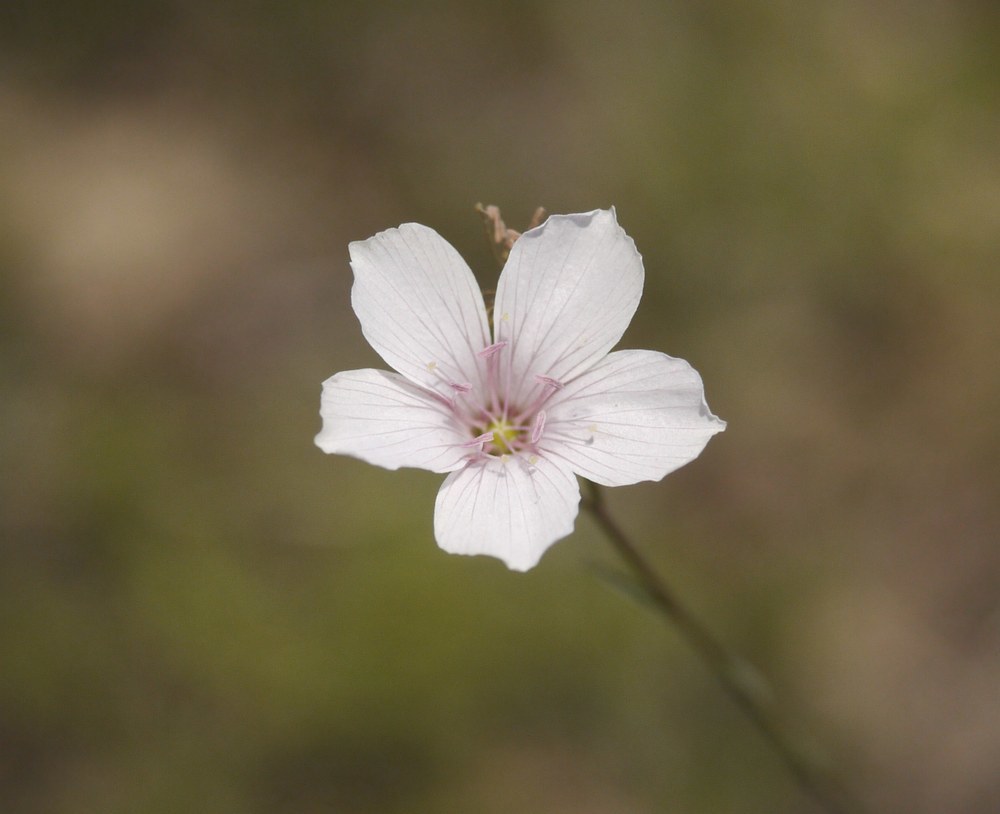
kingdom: Plantae
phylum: Tracheophyta
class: Magnoliopsida
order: Malpighiales
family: Linaceae
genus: Linum
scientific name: Linum tenuifolium
